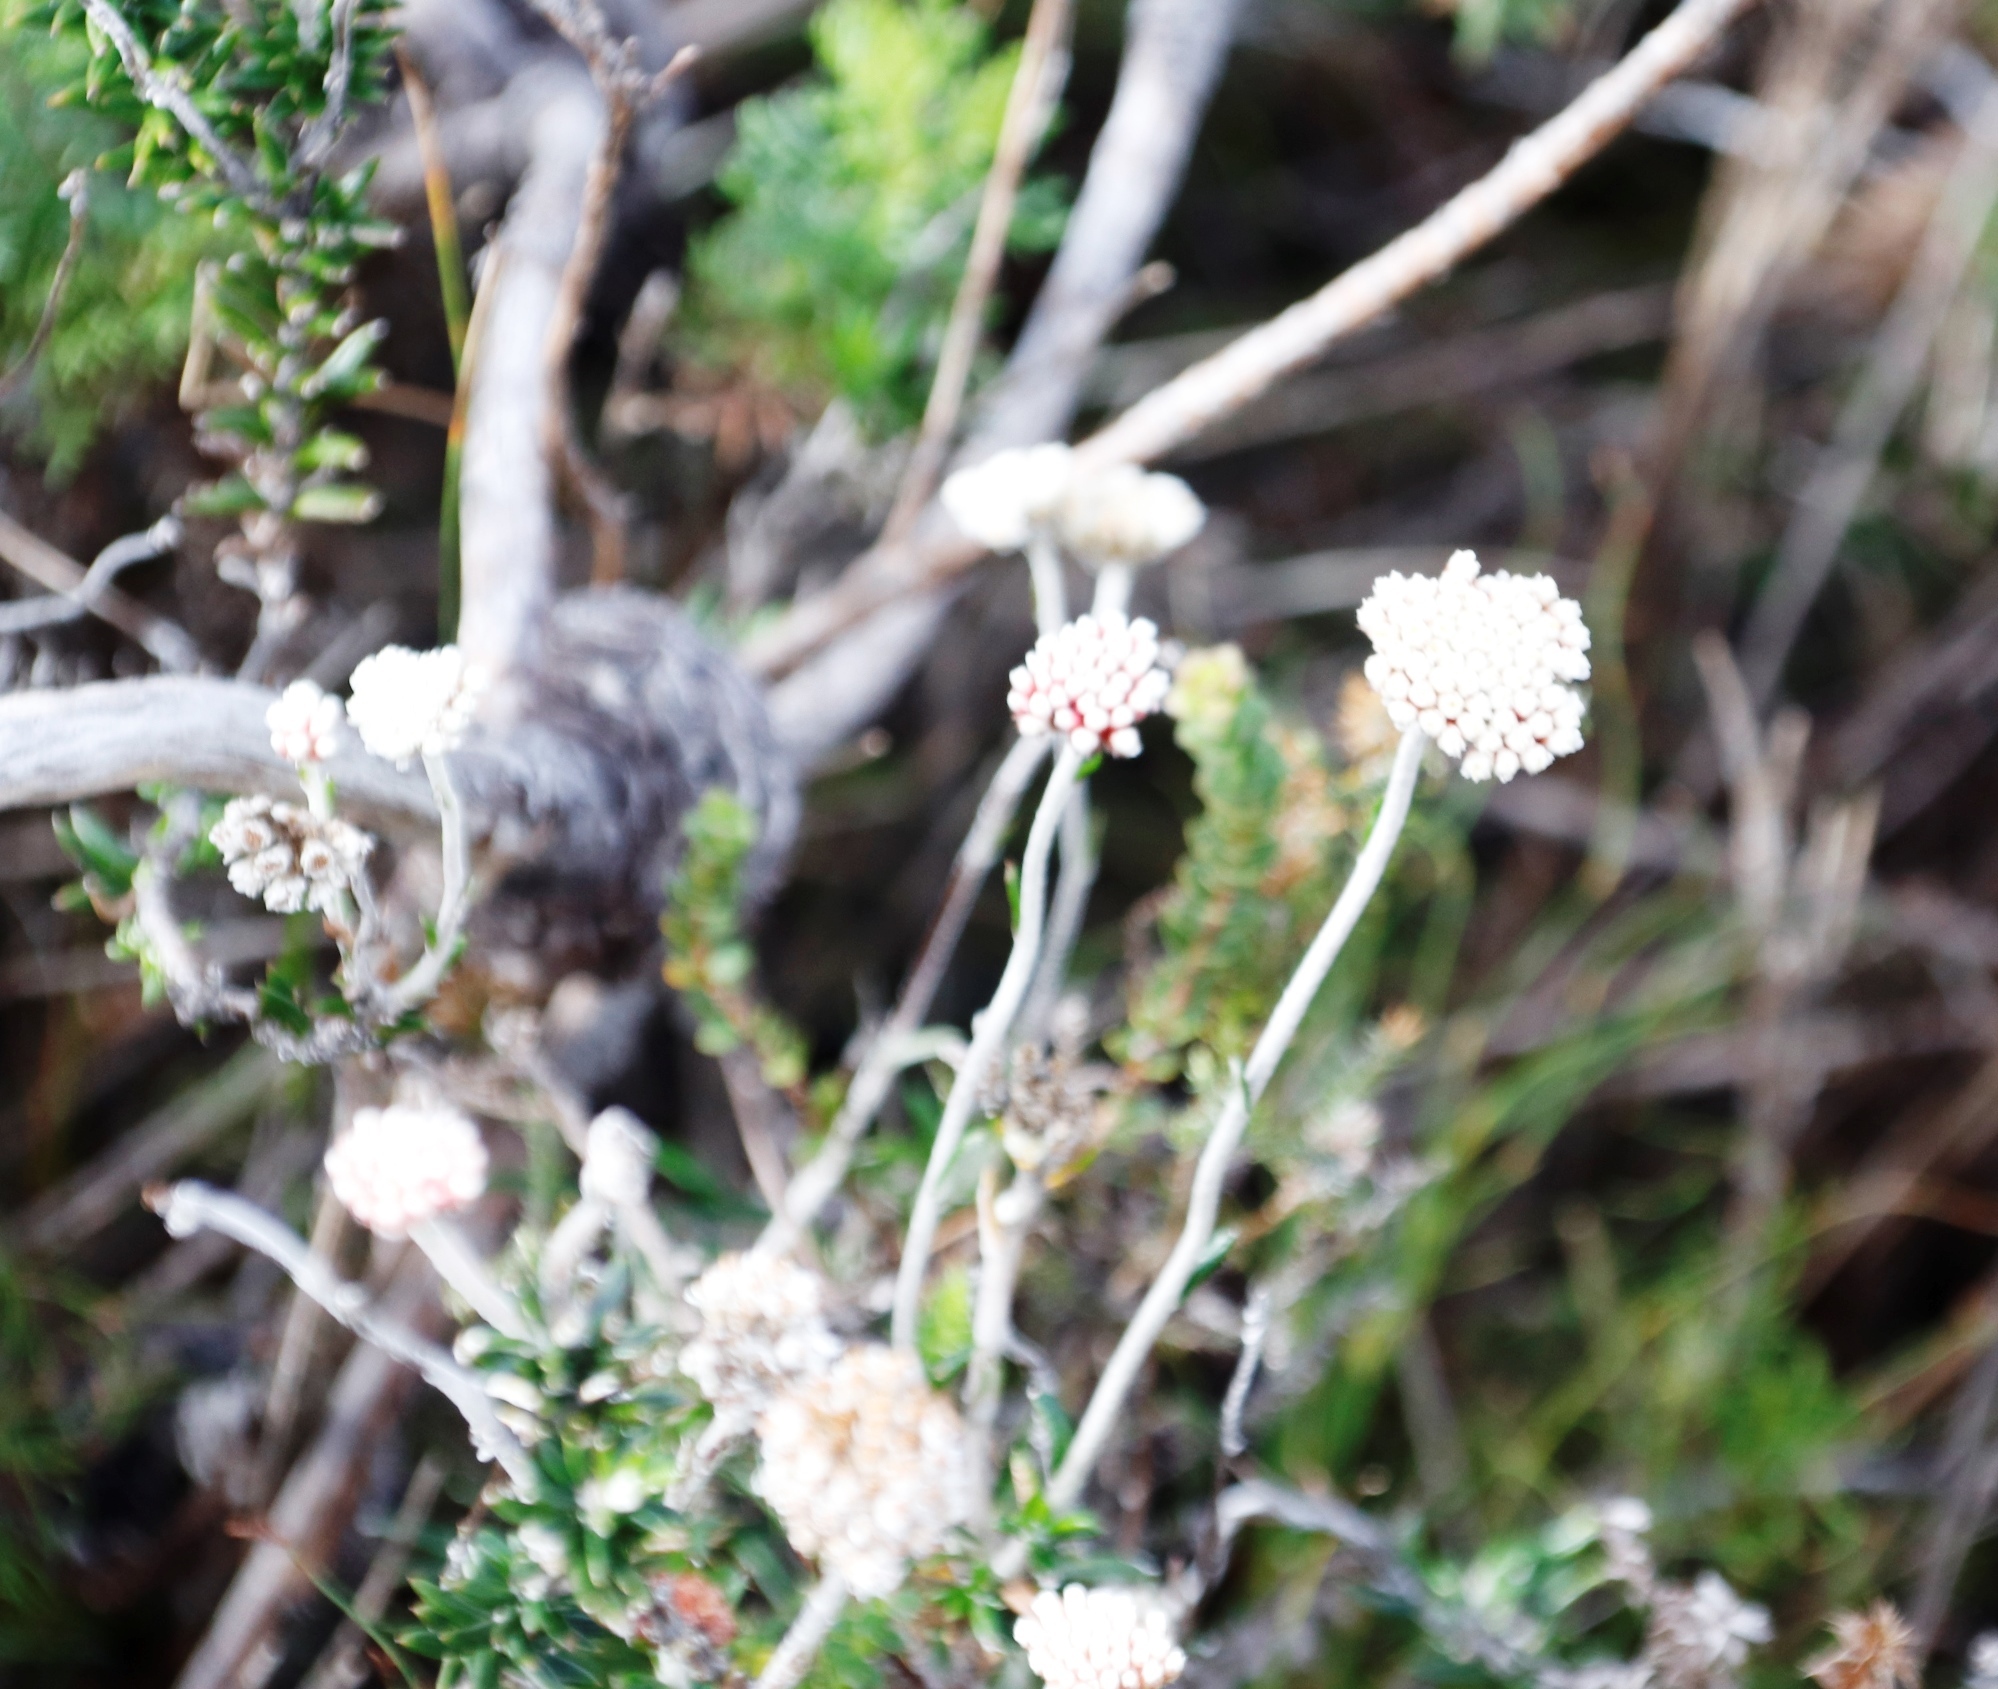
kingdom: Plantae
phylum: Tracheophyta
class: Magnoliopsida
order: Asterales
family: Asteraceae
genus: Anaxeton
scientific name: Anaxeton laeve
